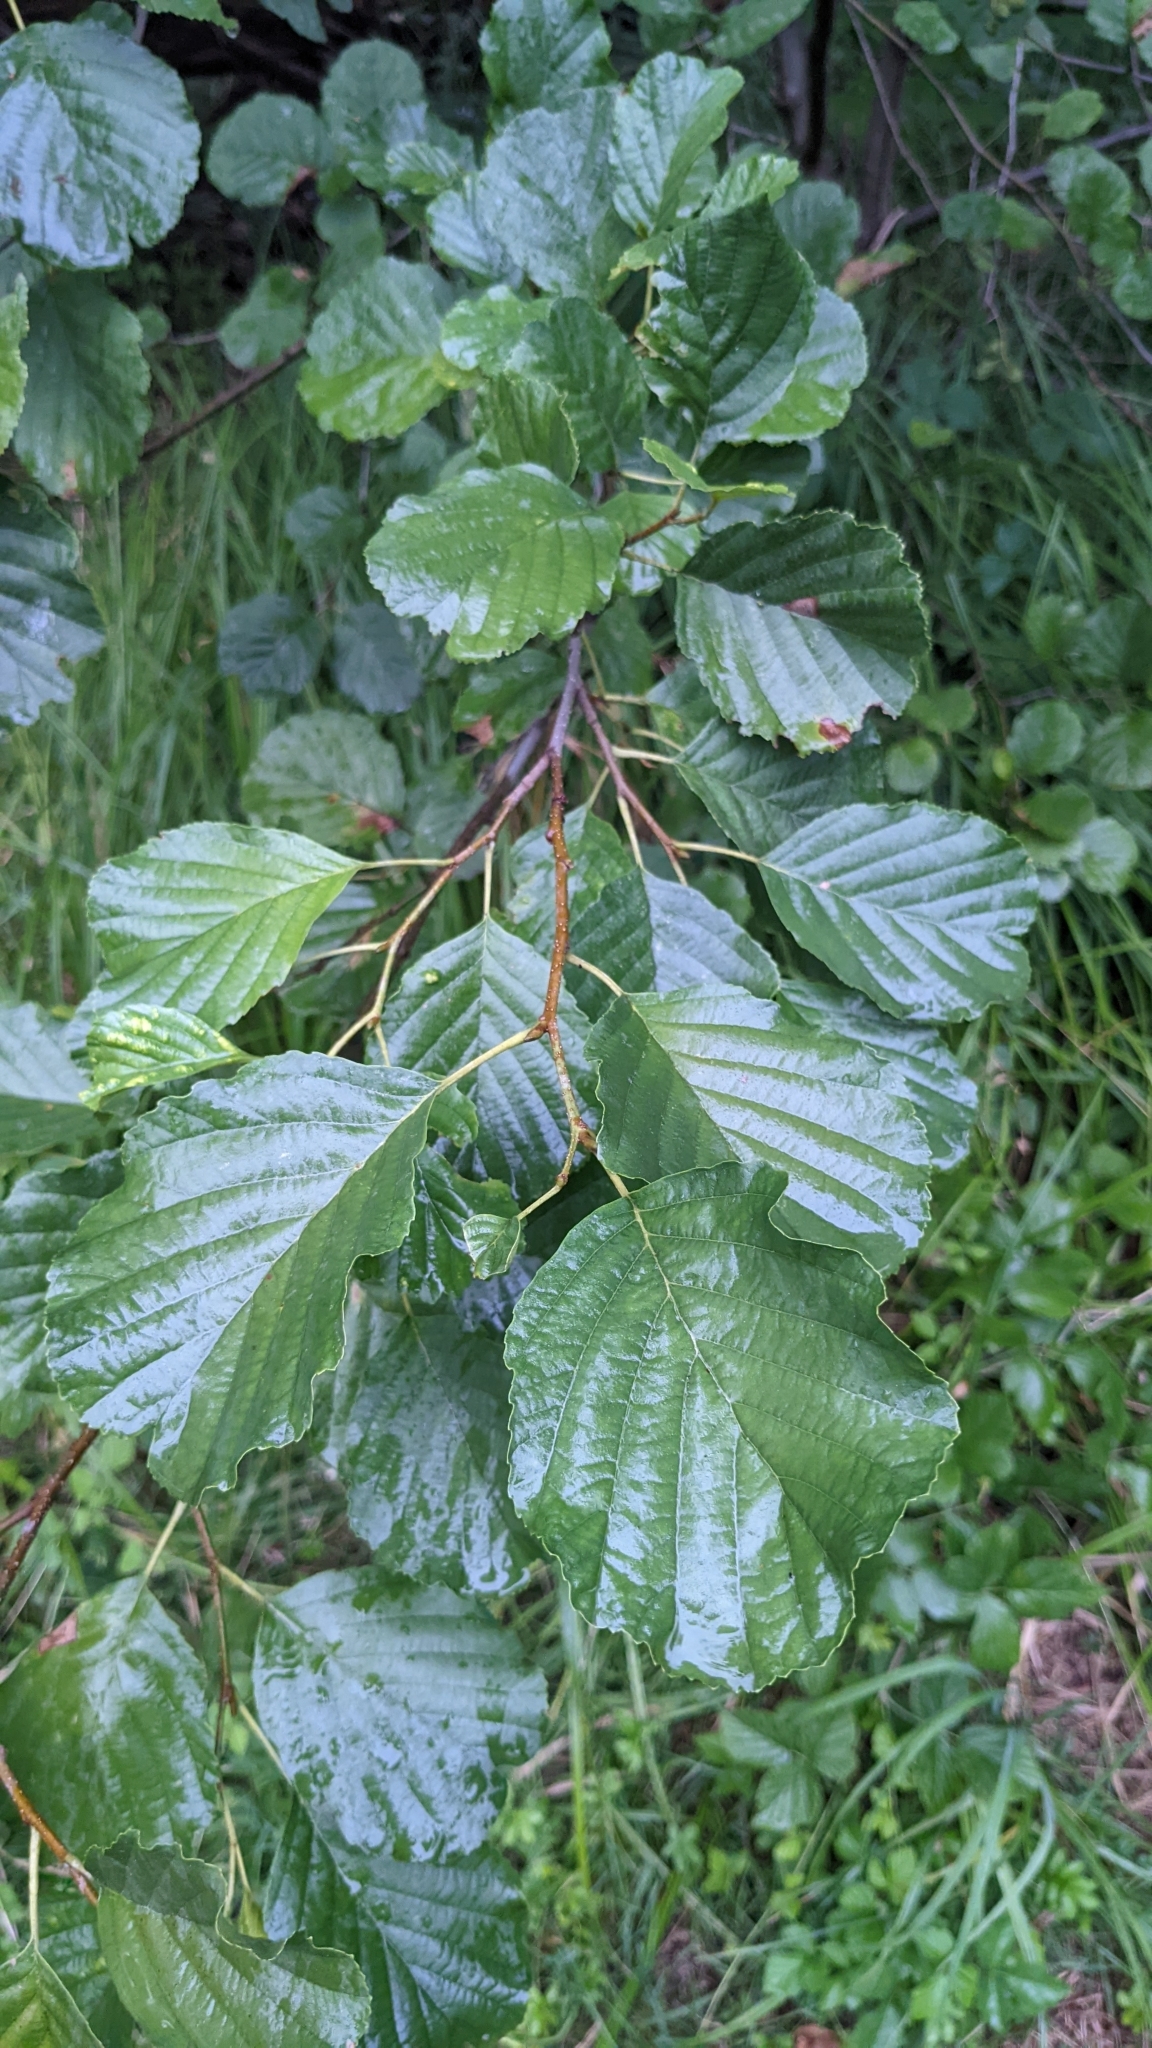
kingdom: Plantae
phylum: Tracheophyta
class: Magnoliopsida
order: Fagales
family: Betulaceae
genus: Alnus
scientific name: Alnus glutinosa
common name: Black alder
